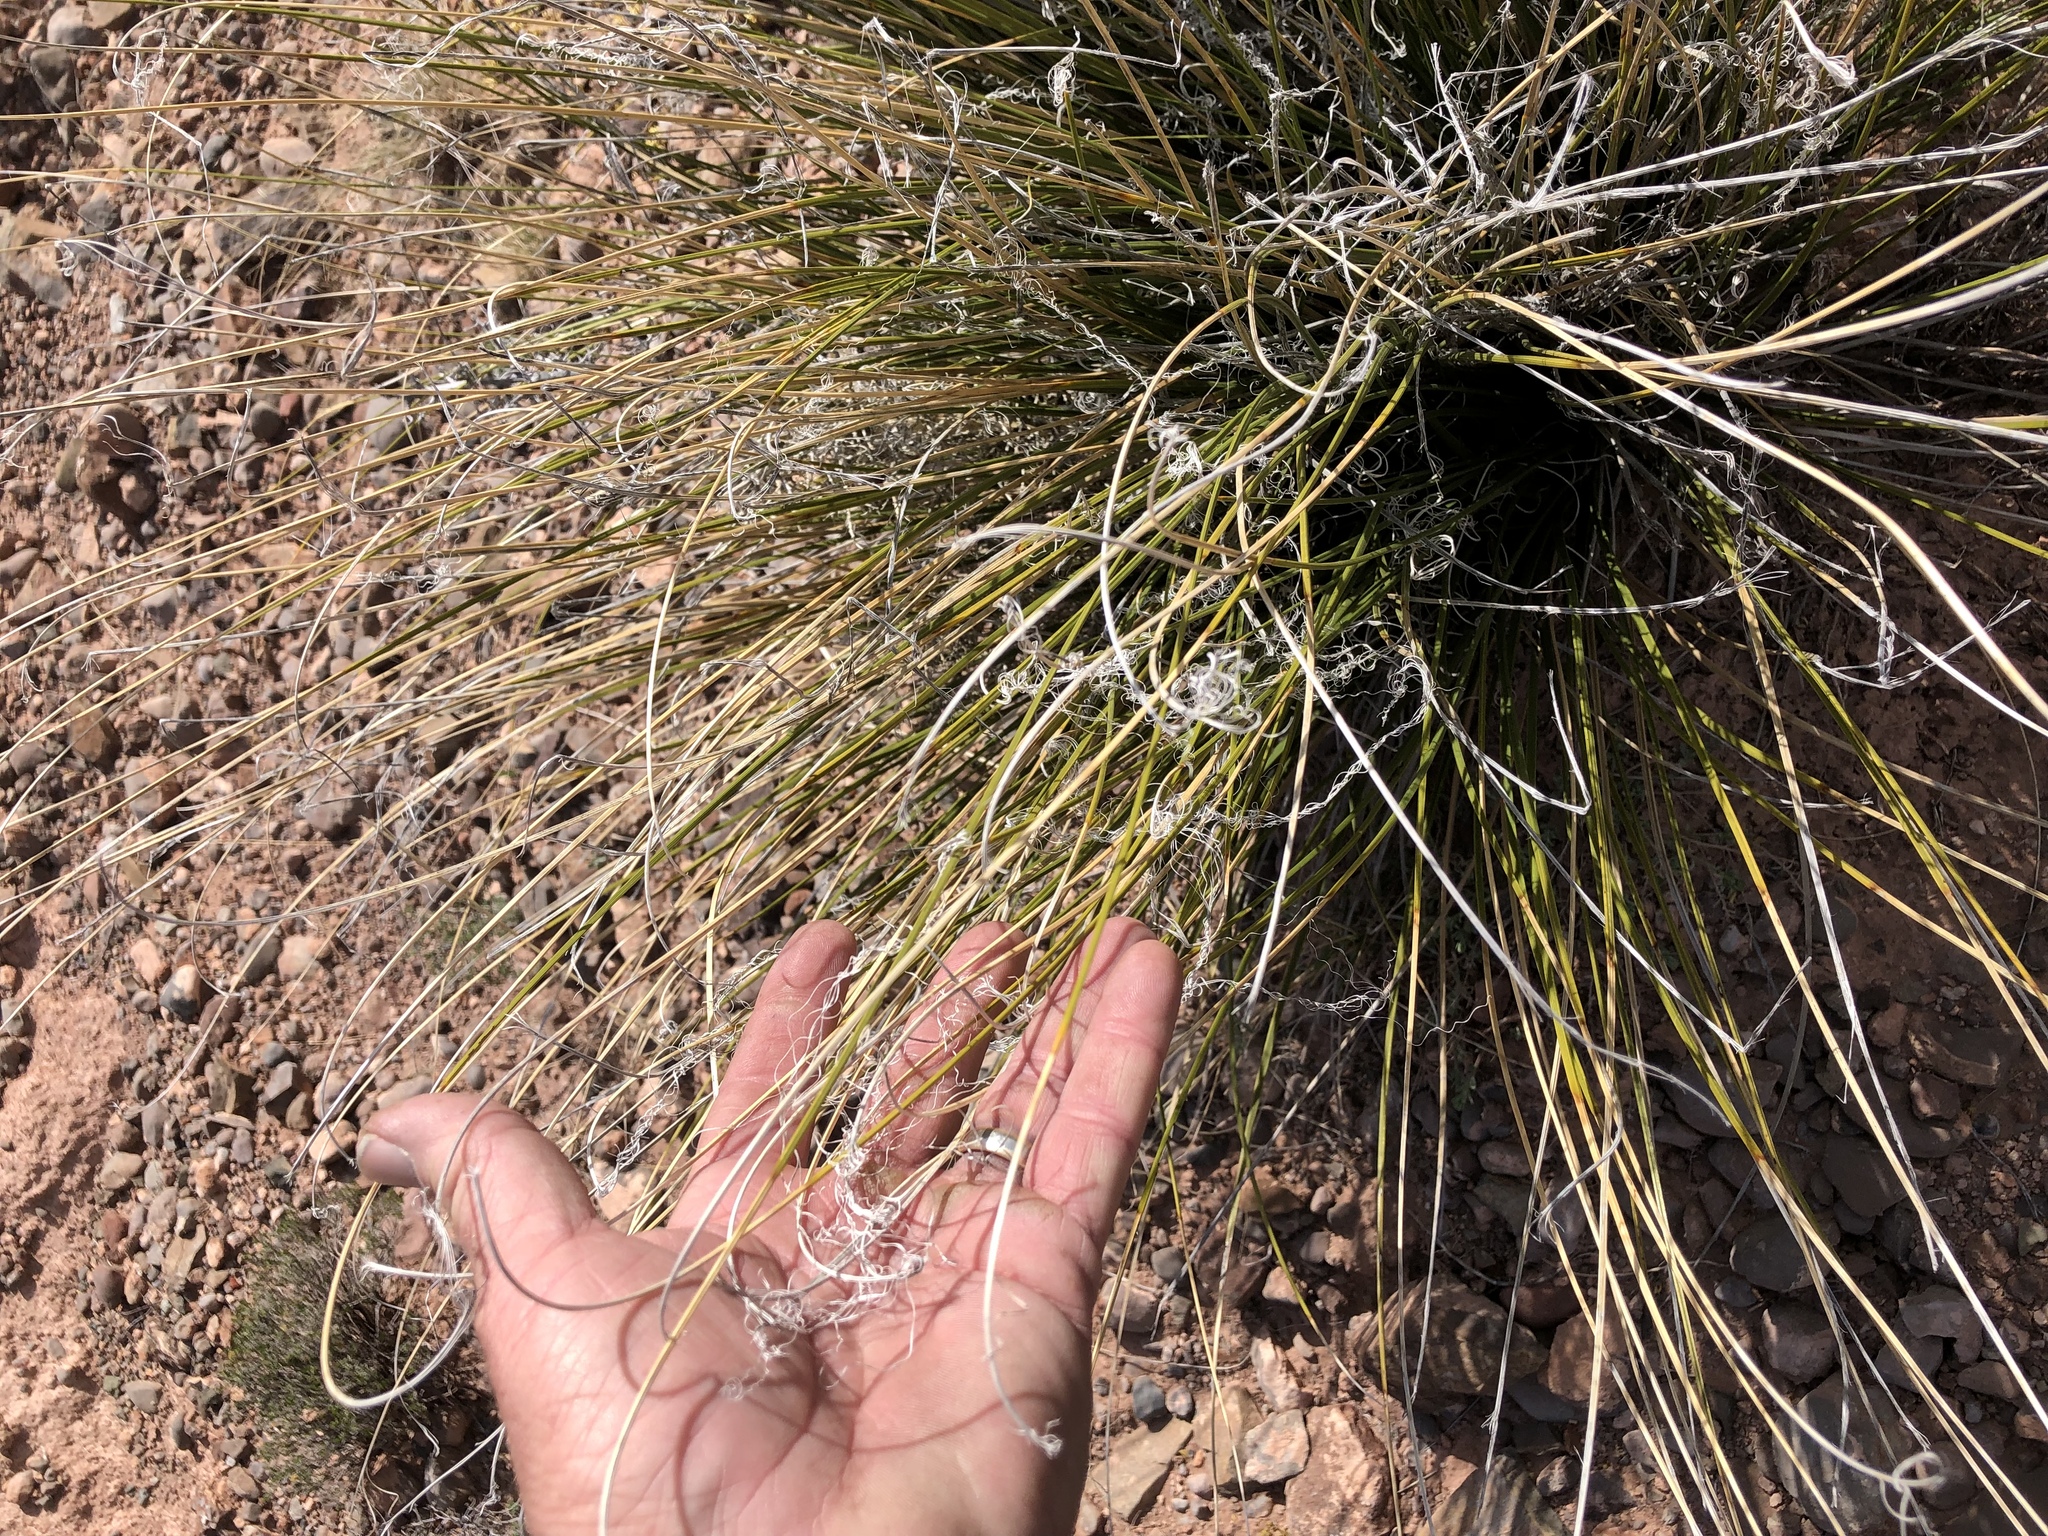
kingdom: Plantae
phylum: Tracheophyta
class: Liliopsida
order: Asparagales
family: Asparagaceae
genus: Nolina
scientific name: Nolina microcarpa
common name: Bear-grass
